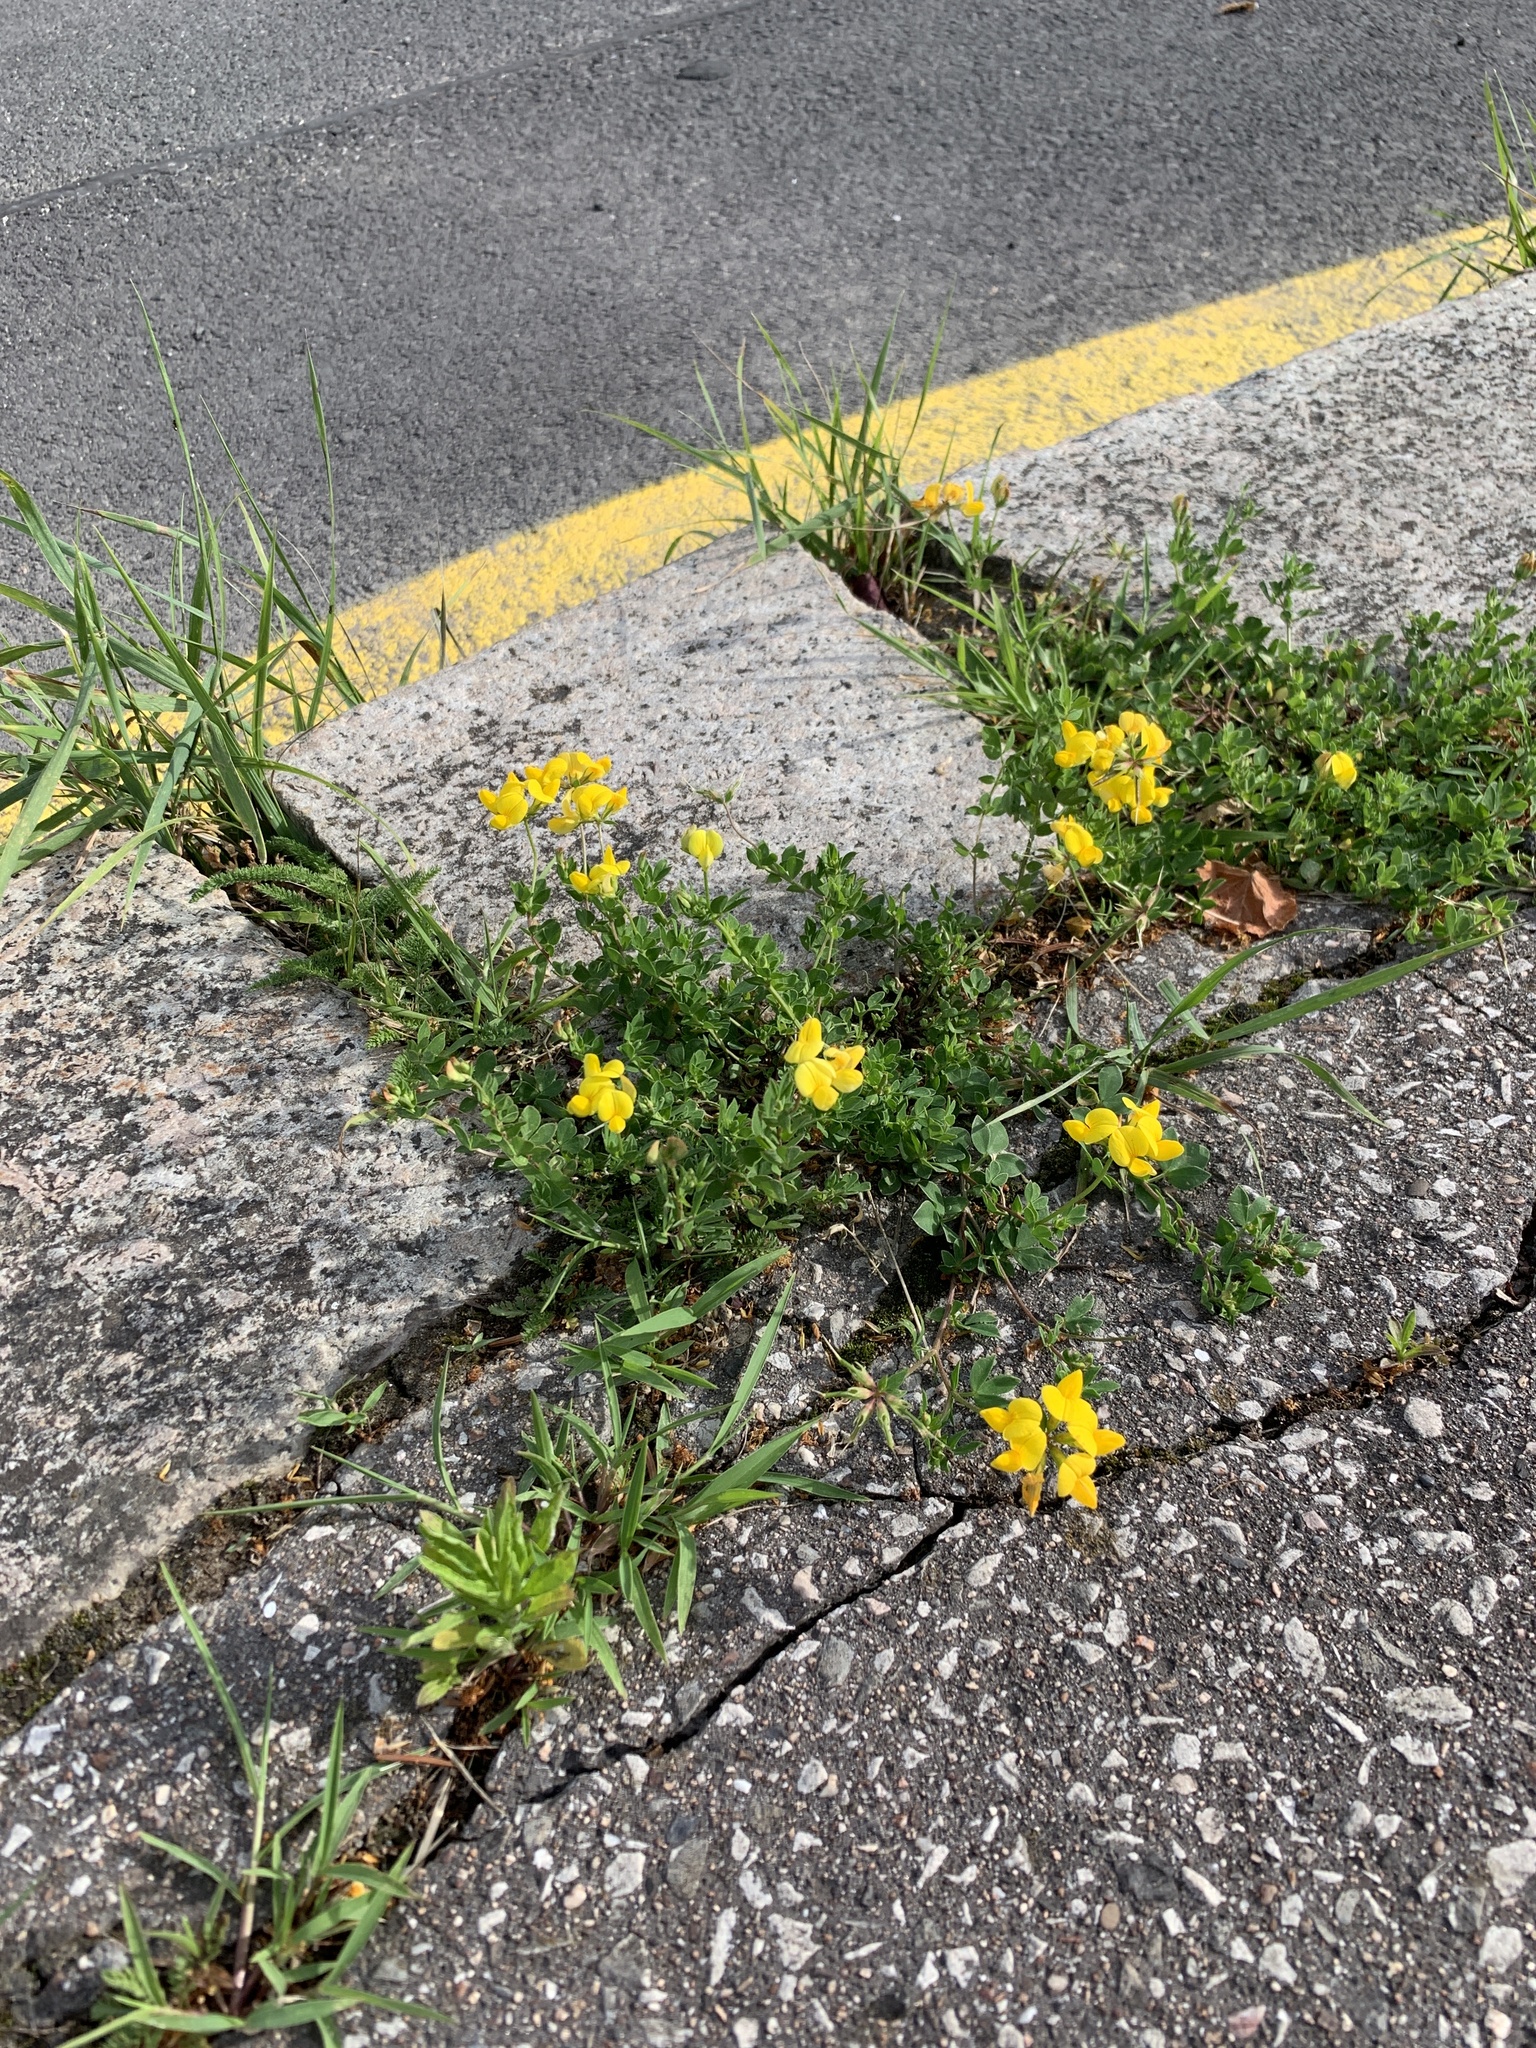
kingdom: Plantae
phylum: Tracheophyta
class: Magnoliopsida
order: Fabales
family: Fabaceae
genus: Lotus
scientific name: Lotus corniculatus
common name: Common bird's-foot-trefoil
